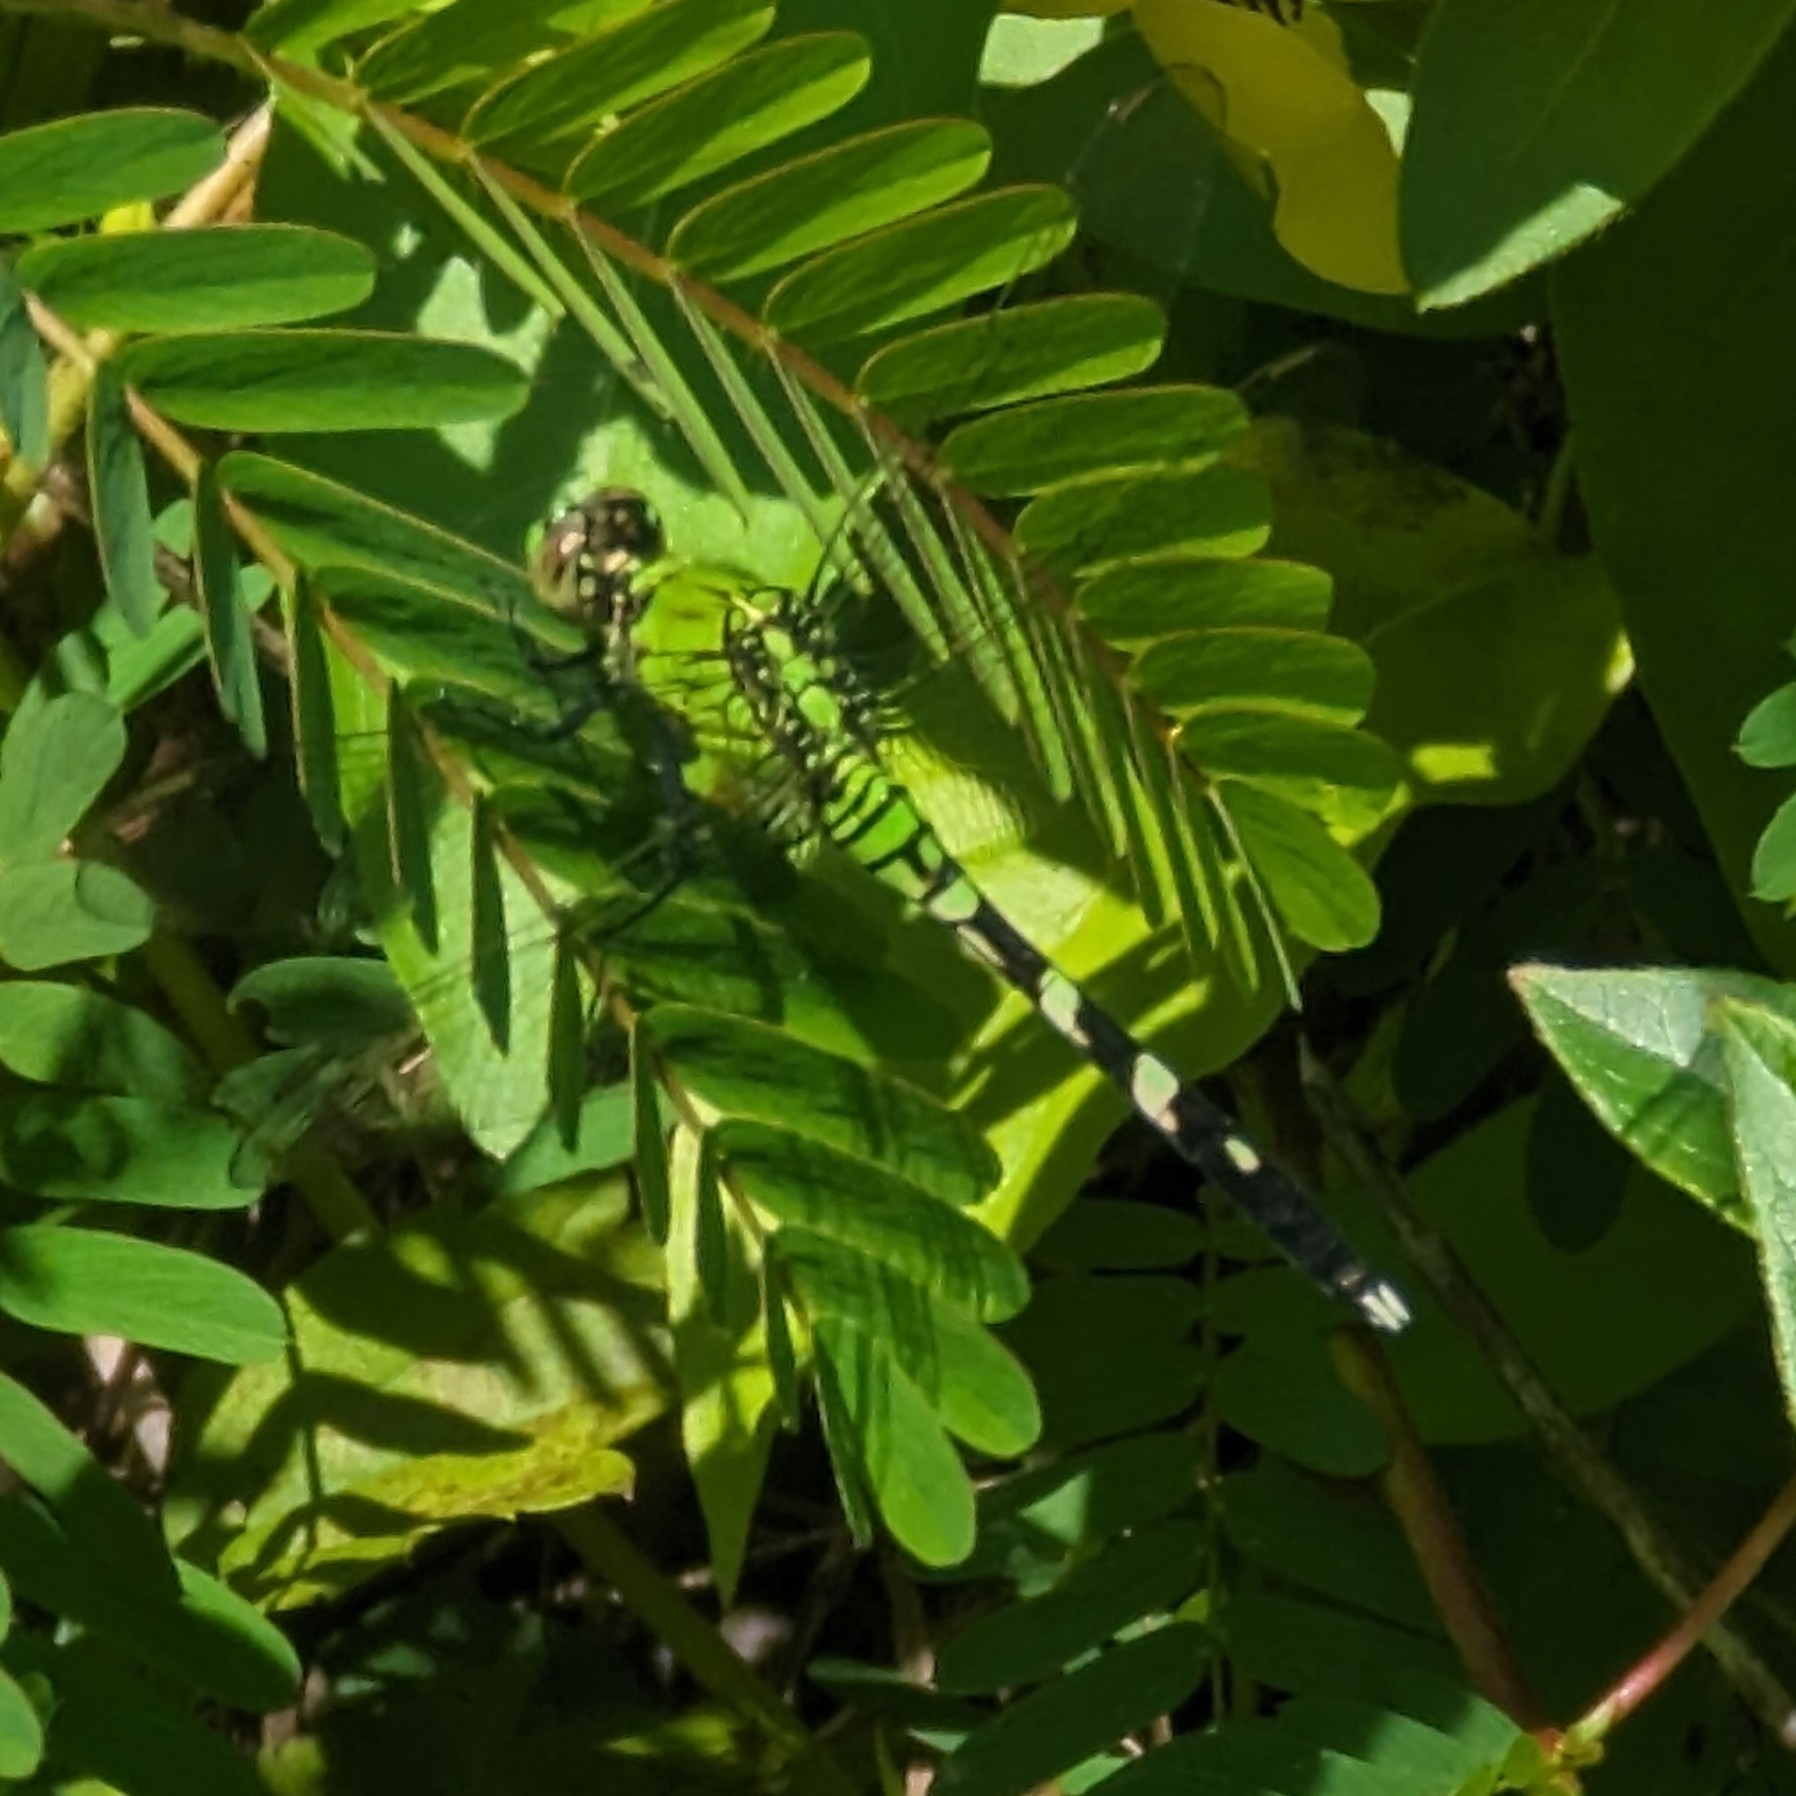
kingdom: Animalia
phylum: Arthropoda
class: Insecta
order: Odonata
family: Libellulidae
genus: Erythemis
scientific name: Erythemis simplicicollis
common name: Eastern pondhawk
